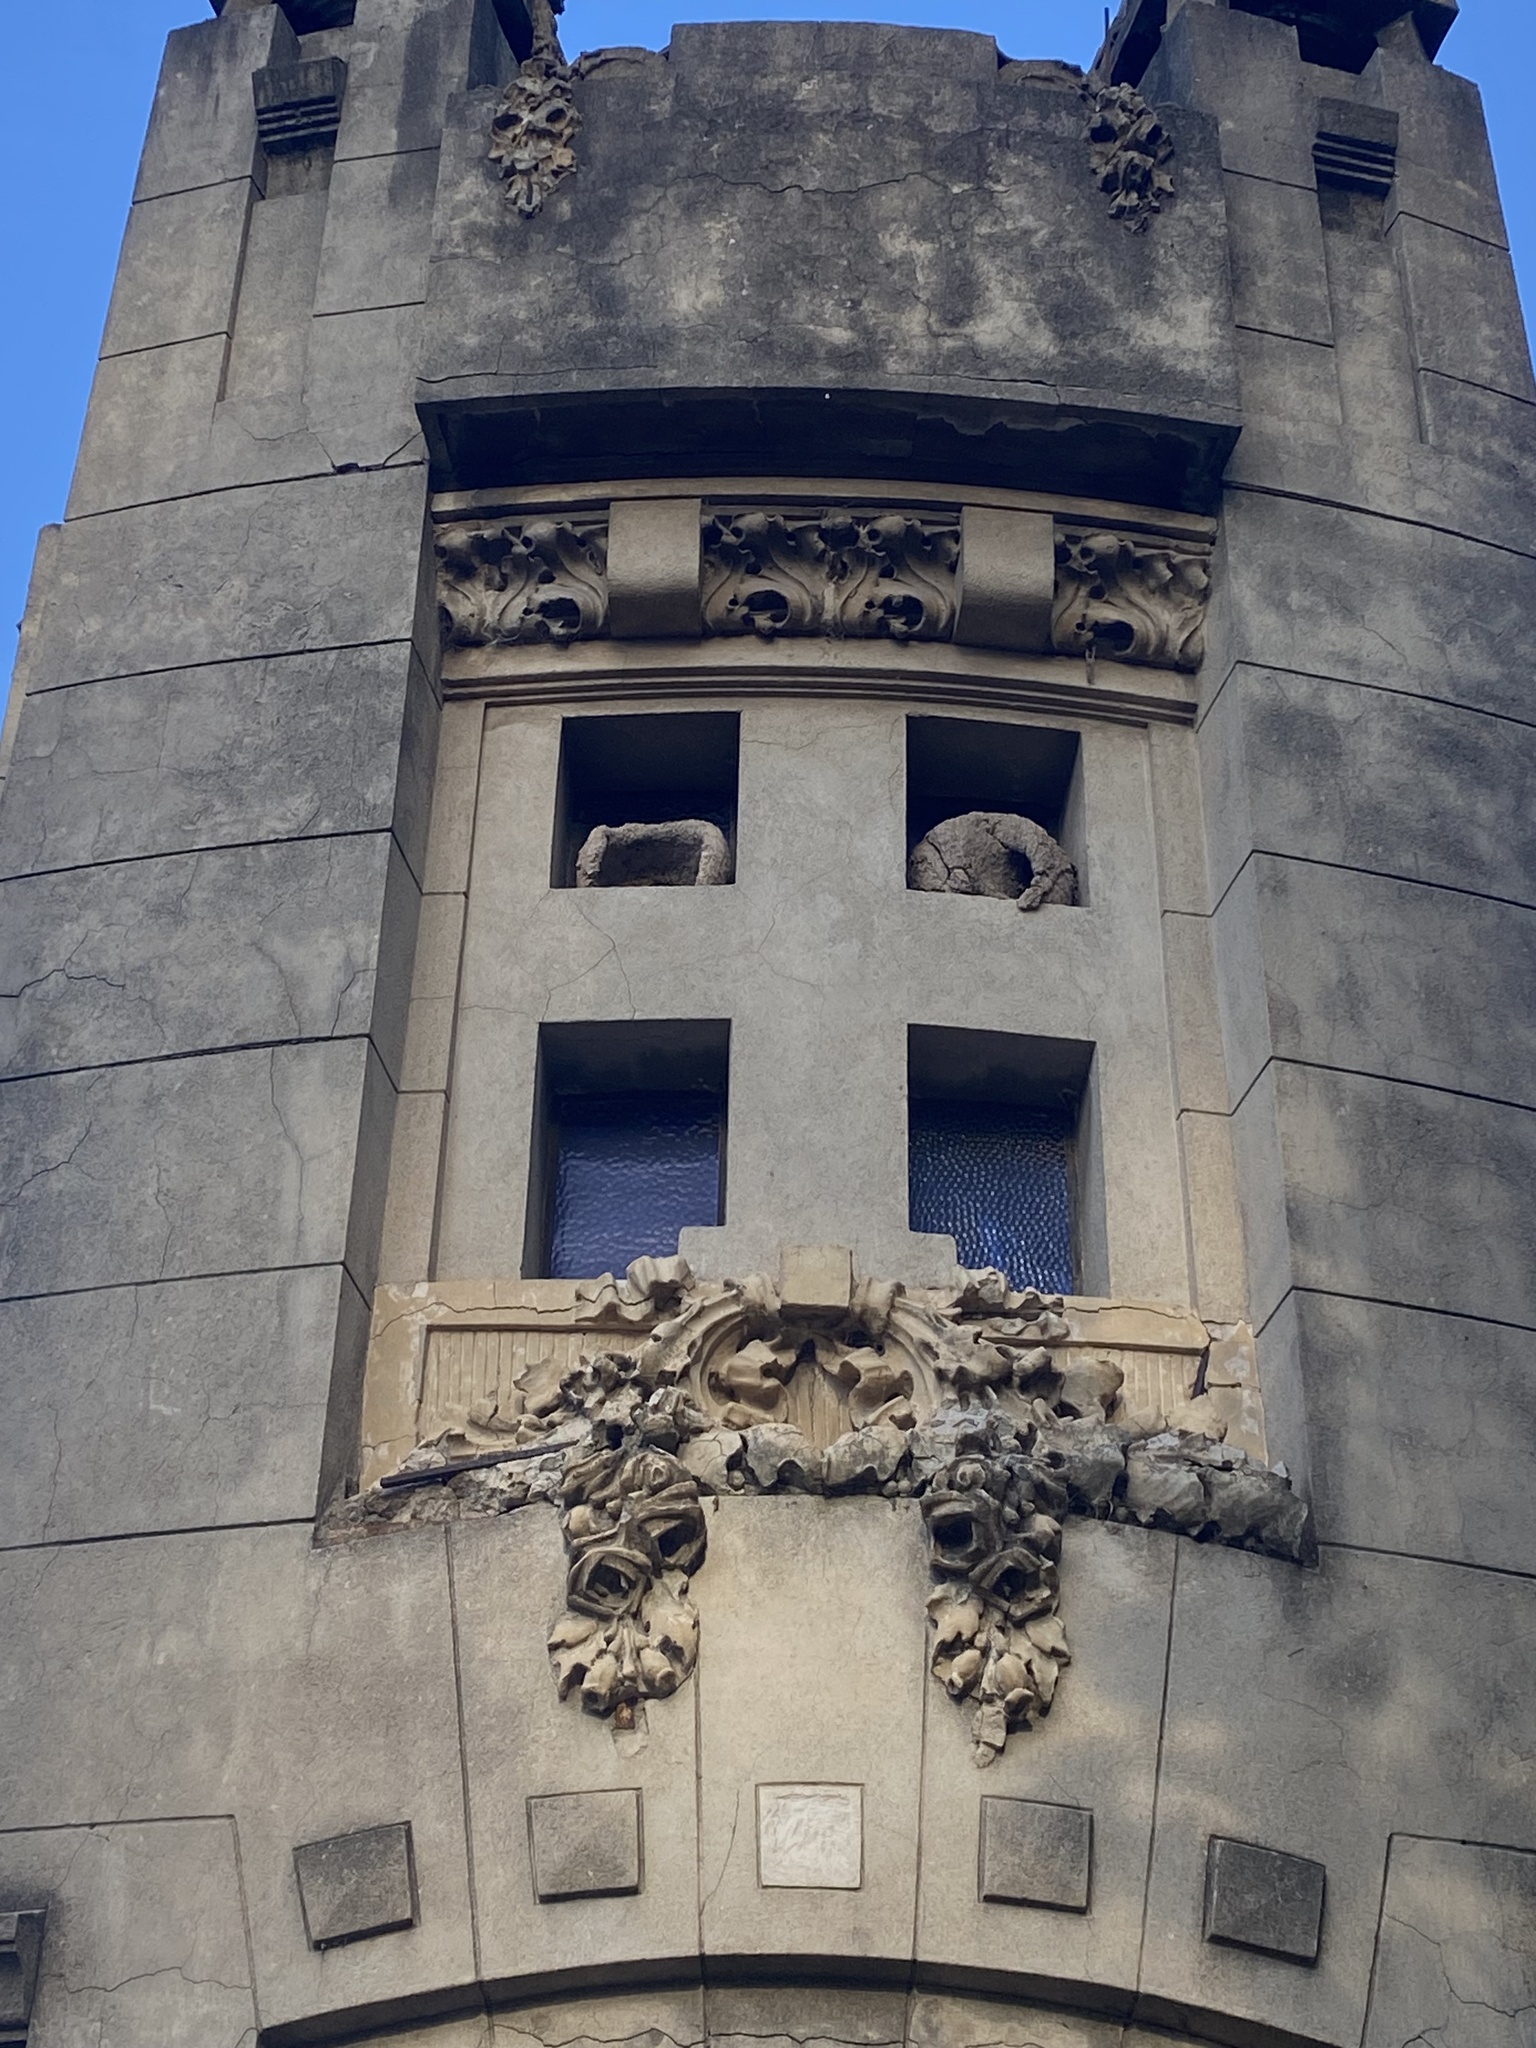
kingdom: Animalia
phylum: Chordata
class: Aves
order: Passeriformes
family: Furnariidae
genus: Furnarius
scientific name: Furnarius rufus
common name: Rufous hornero
